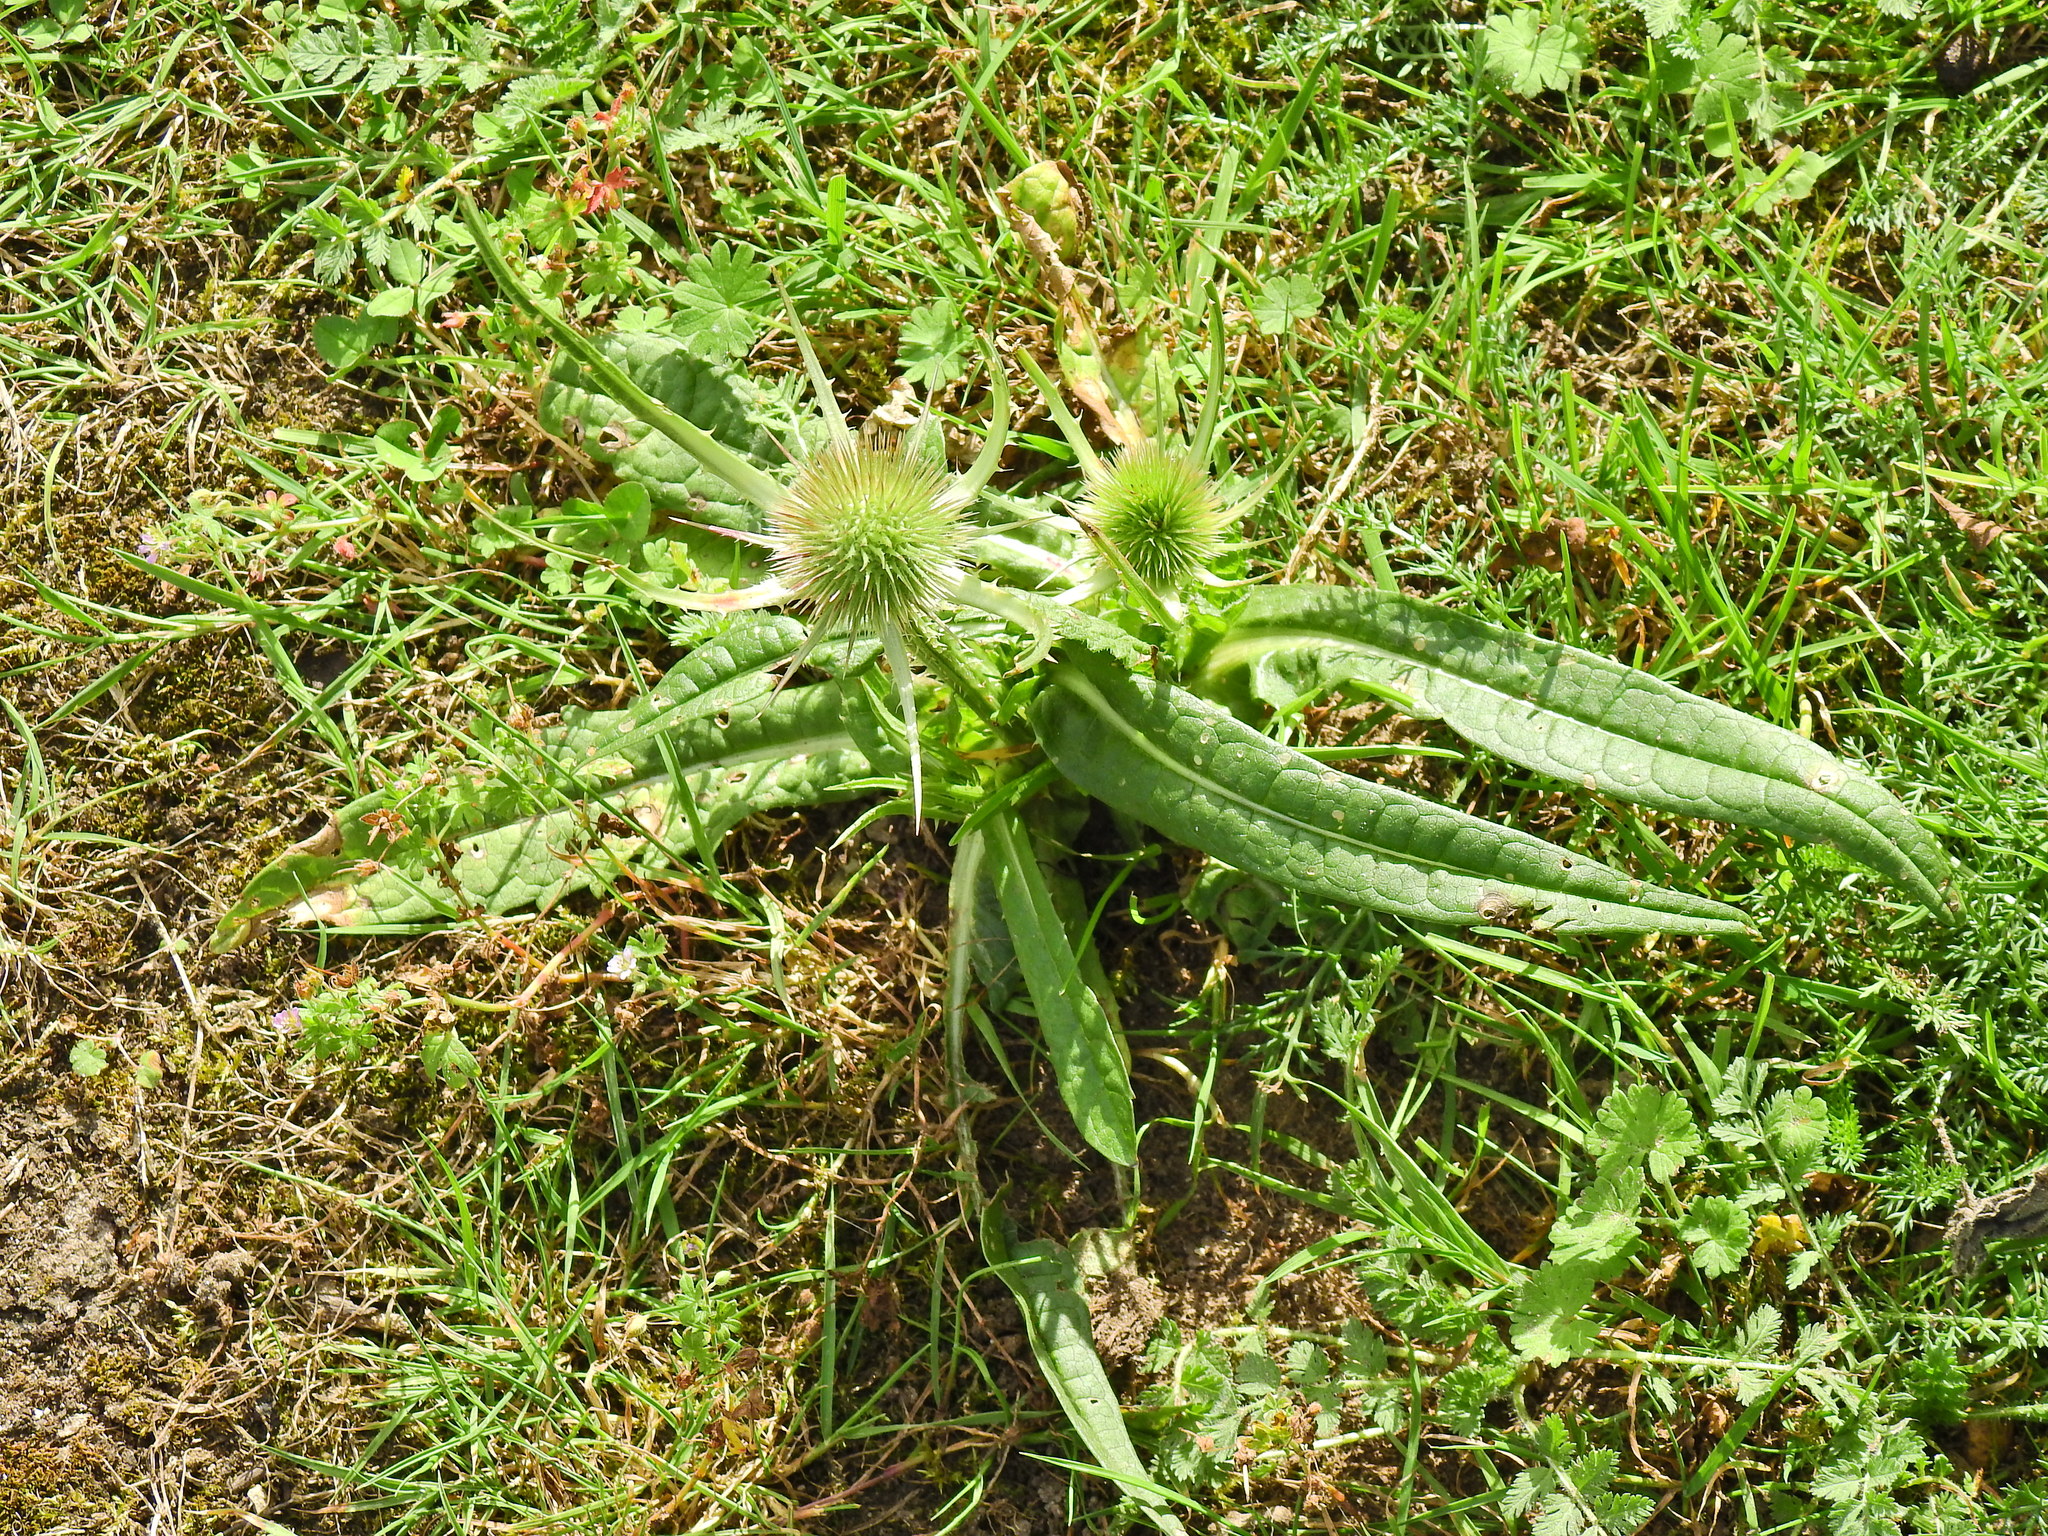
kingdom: Plantae
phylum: Tracheophyta
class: Magnoliopsida
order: Dipsacales
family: Caprifoliaceae
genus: Dipsacus
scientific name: Dipsacus fullonum
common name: Teasel
